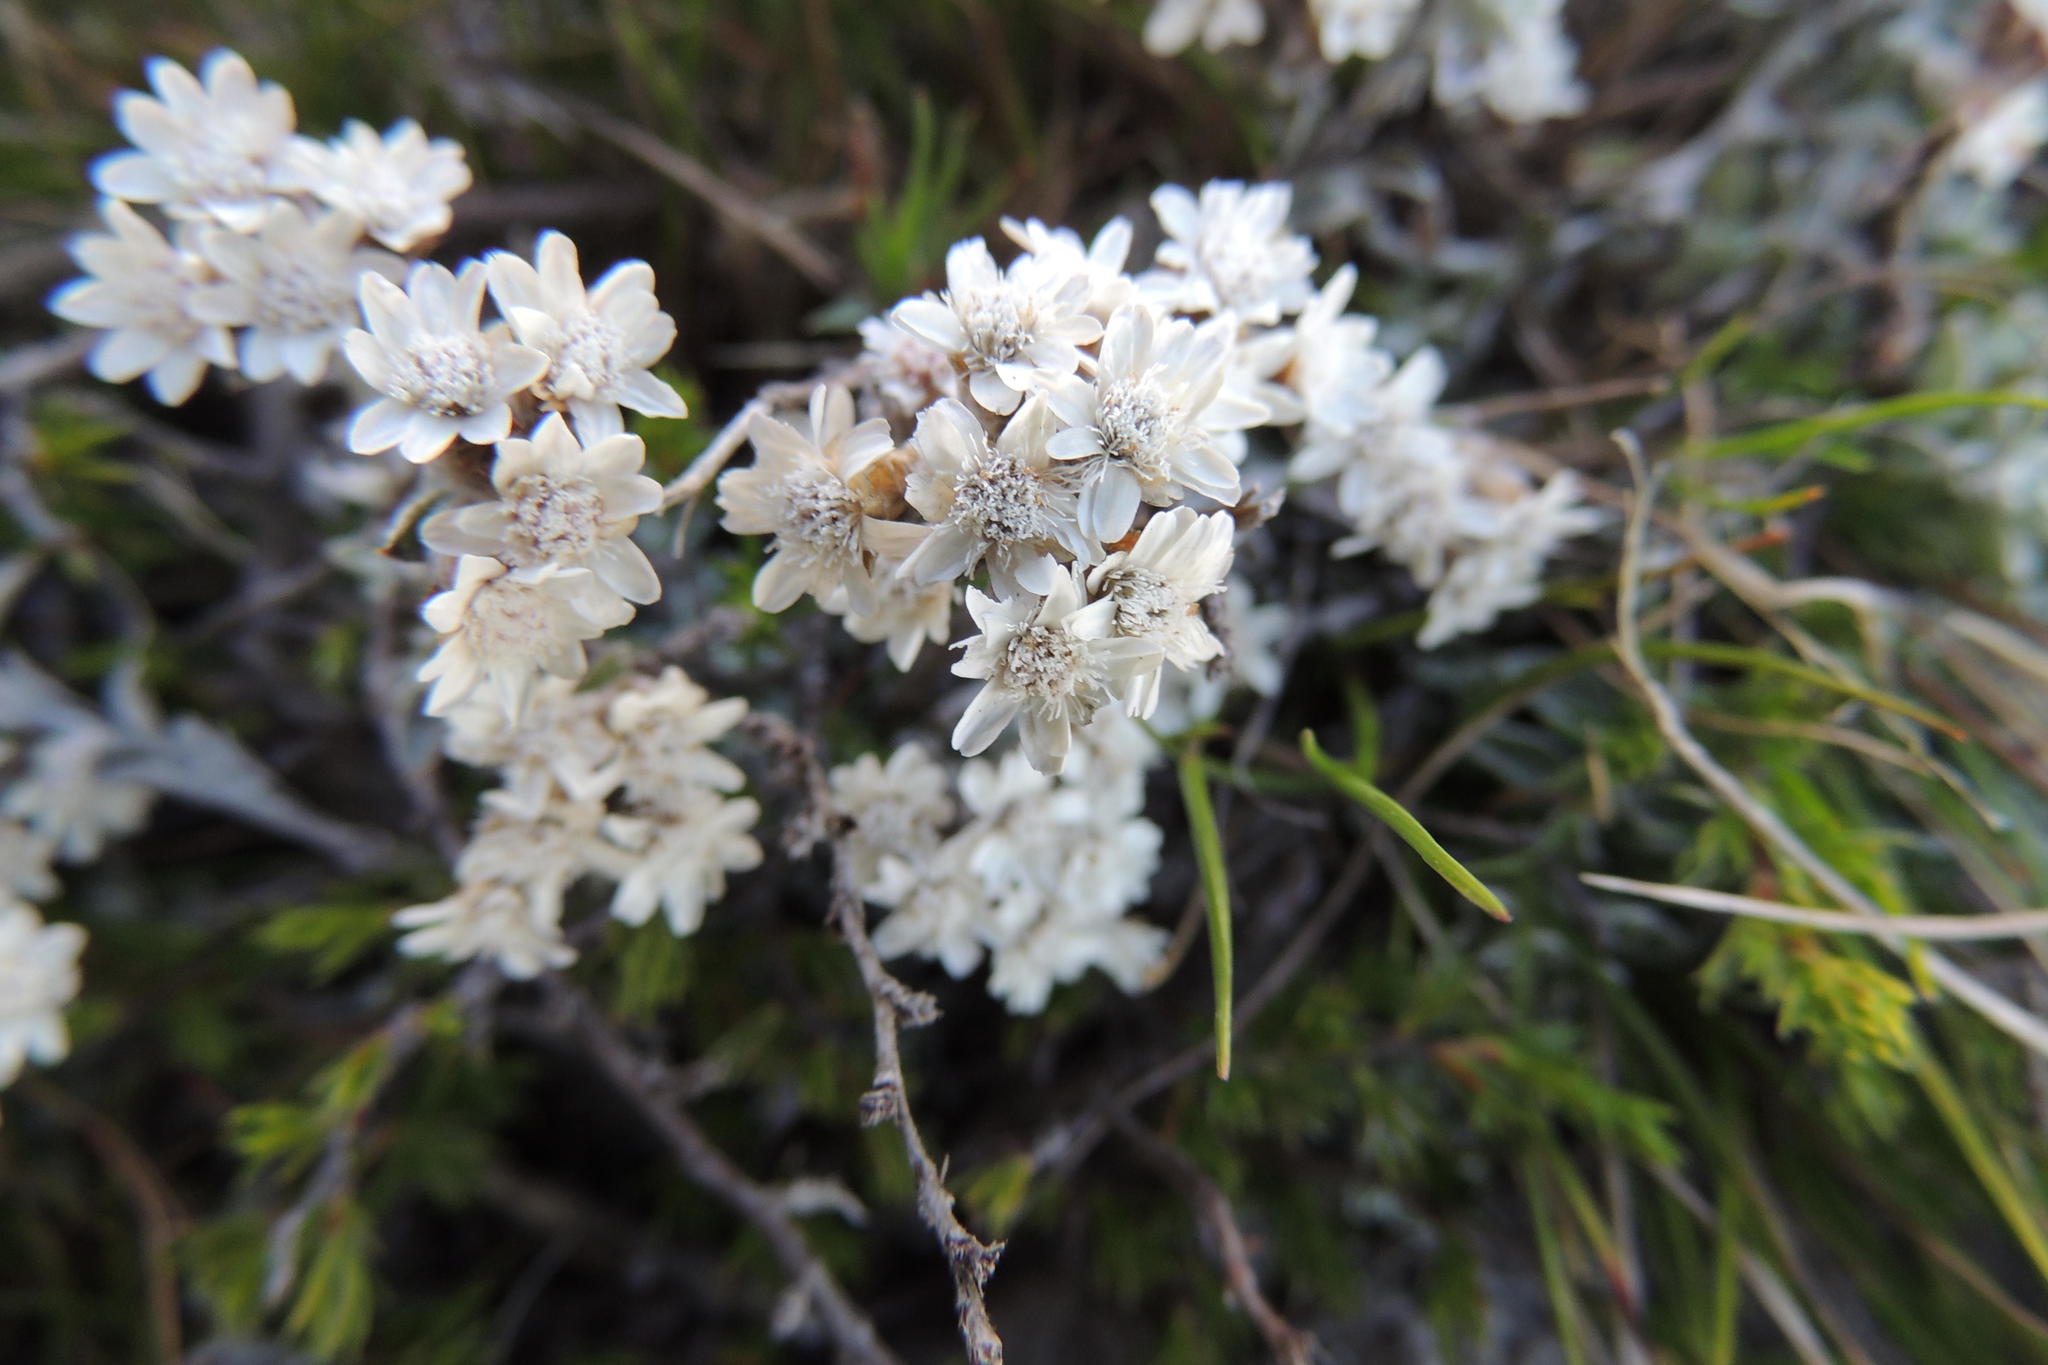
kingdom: Plantae
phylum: Tracheophyta
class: Magnoliopsida
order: Asterales
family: Asteraceae
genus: Langebergia
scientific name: Langebergia canescens
